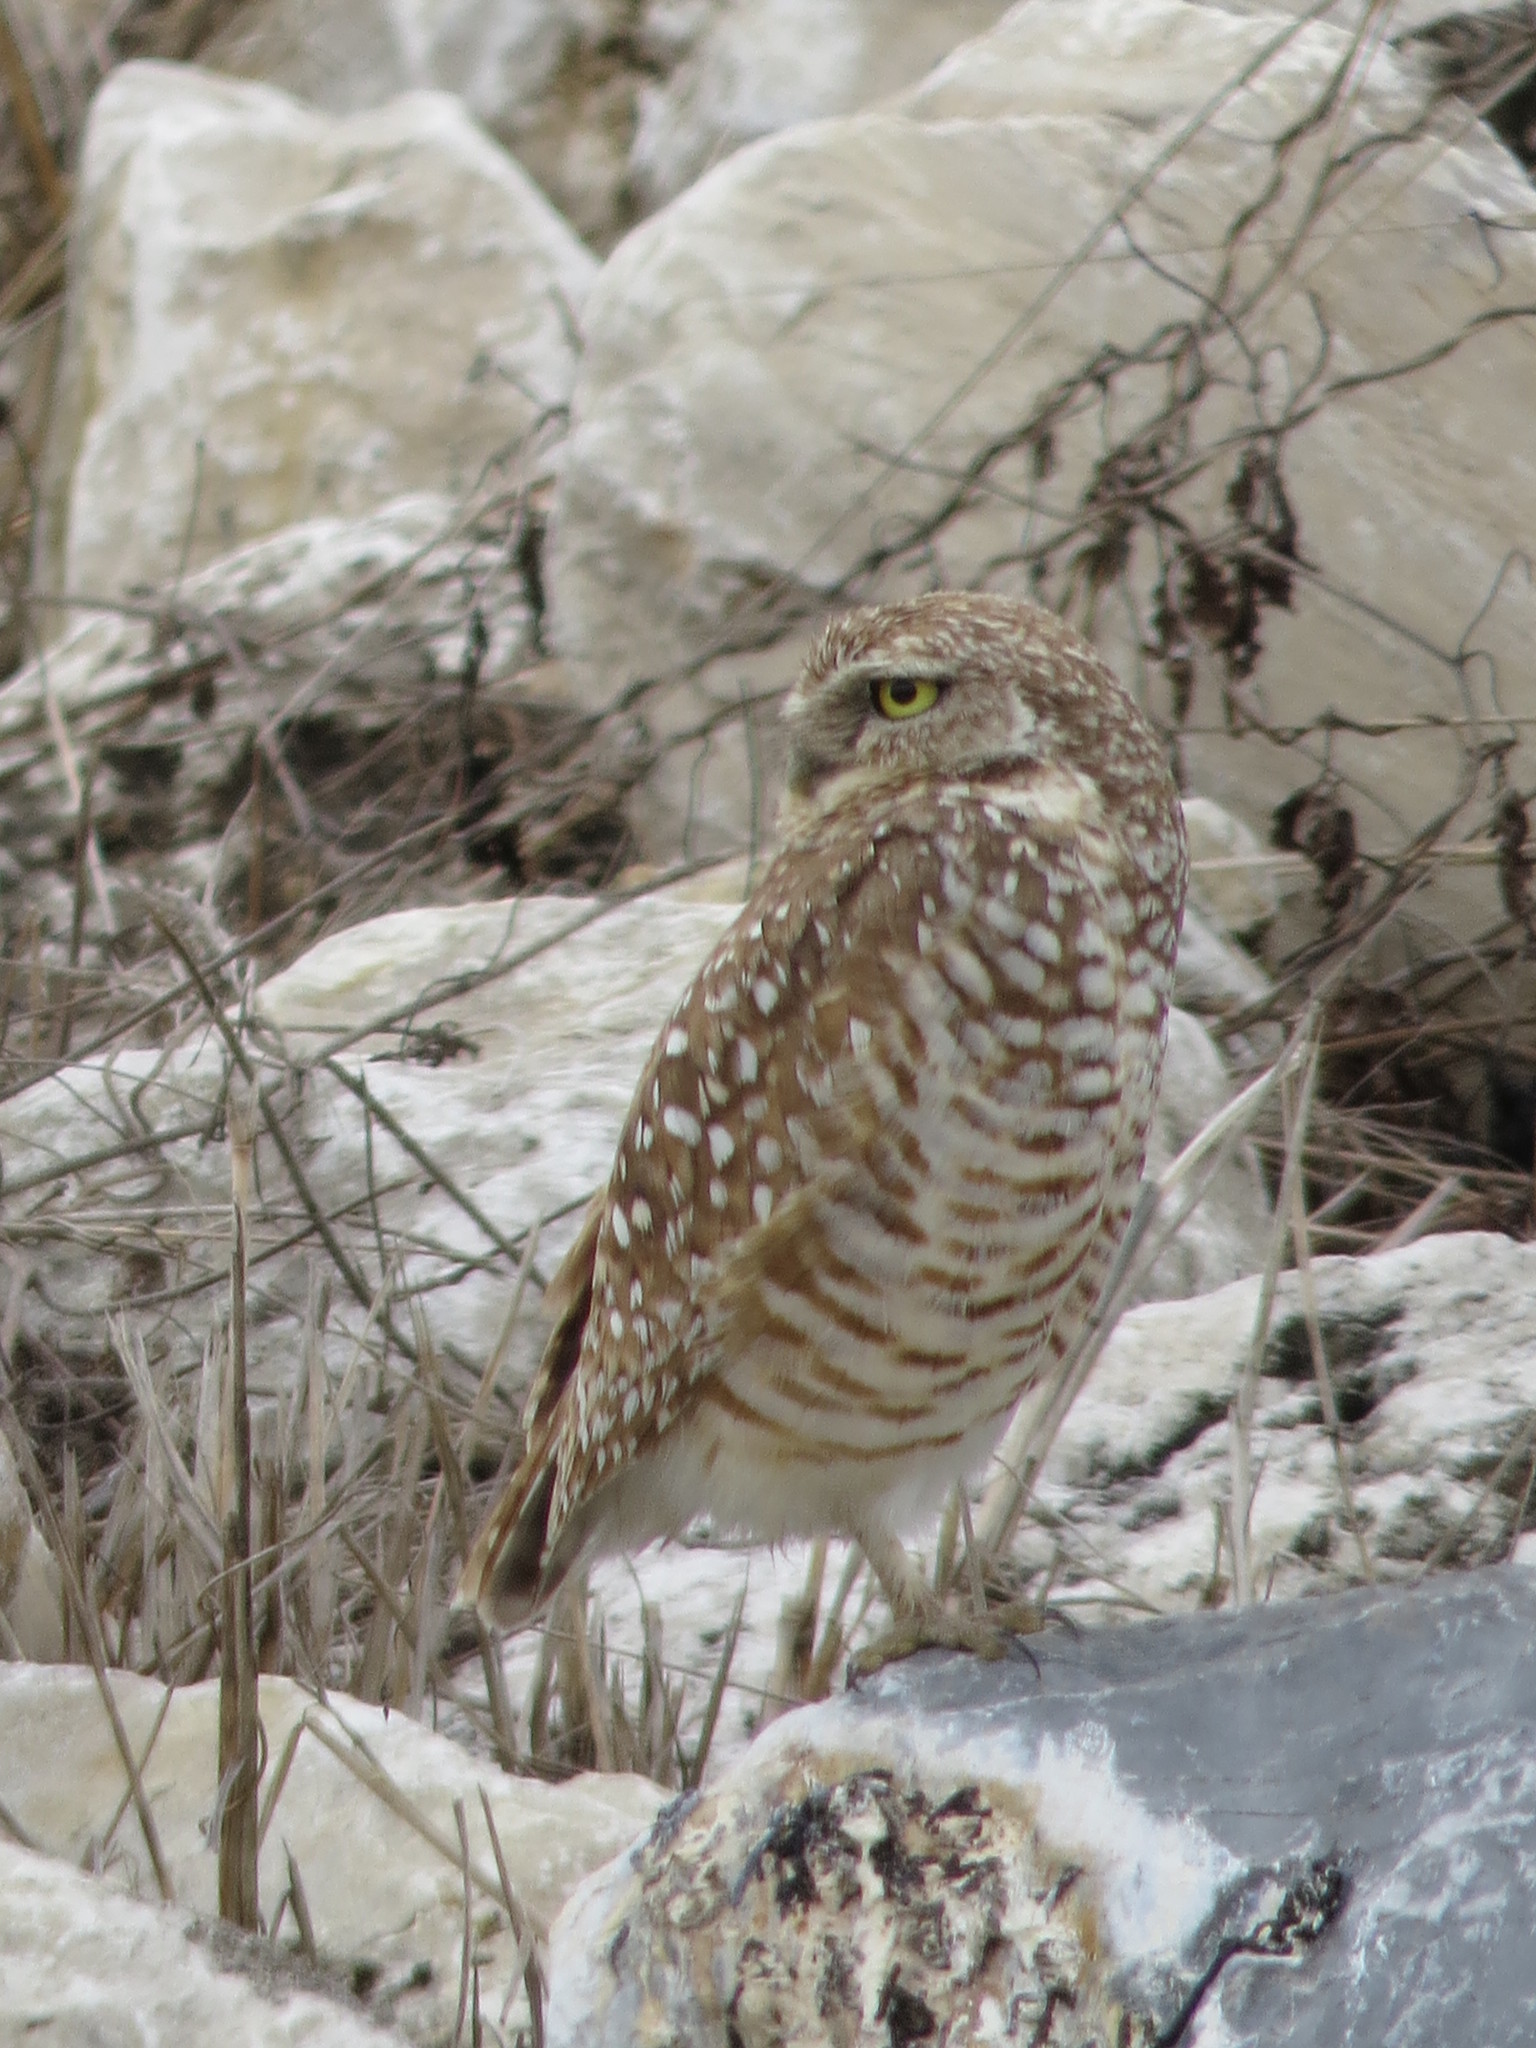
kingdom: Animalia
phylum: Chordata
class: Aves
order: Strigiformes
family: Strigidae
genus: Athene
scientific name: Athene cunicularia
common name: Burrowing owl
